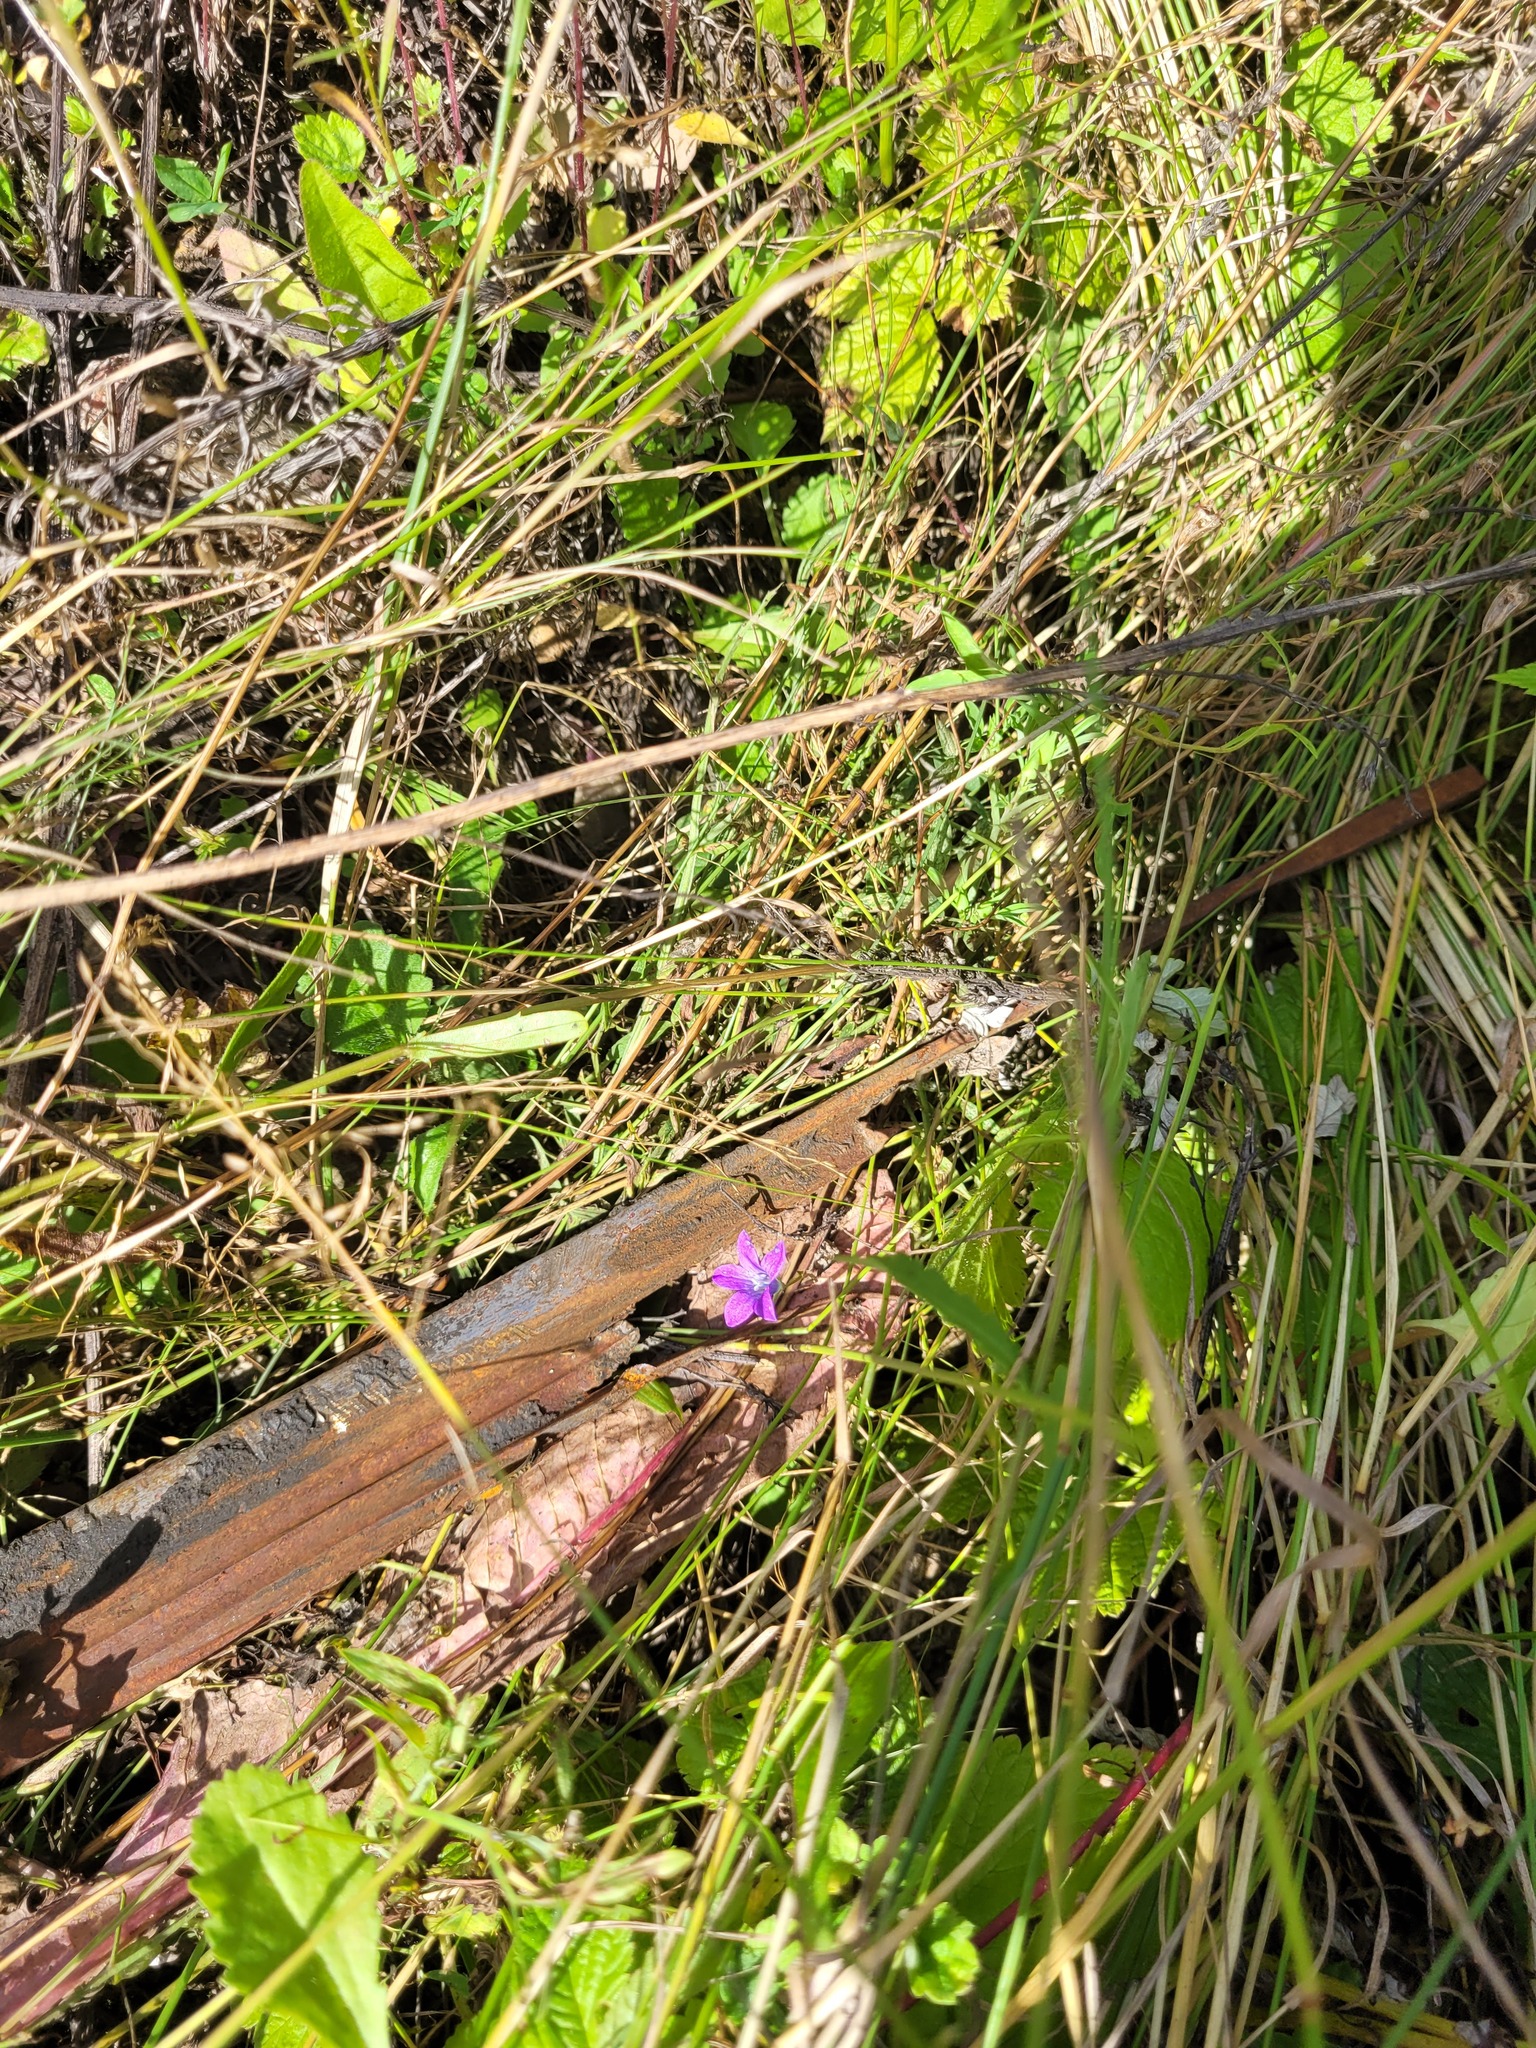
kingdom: Plantae
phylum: Tracheophyta
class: Magnoliopsida
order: Asterales
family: Campanulaceae
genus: Campanula
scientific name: Campanula patula
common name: Spreading bellflower
